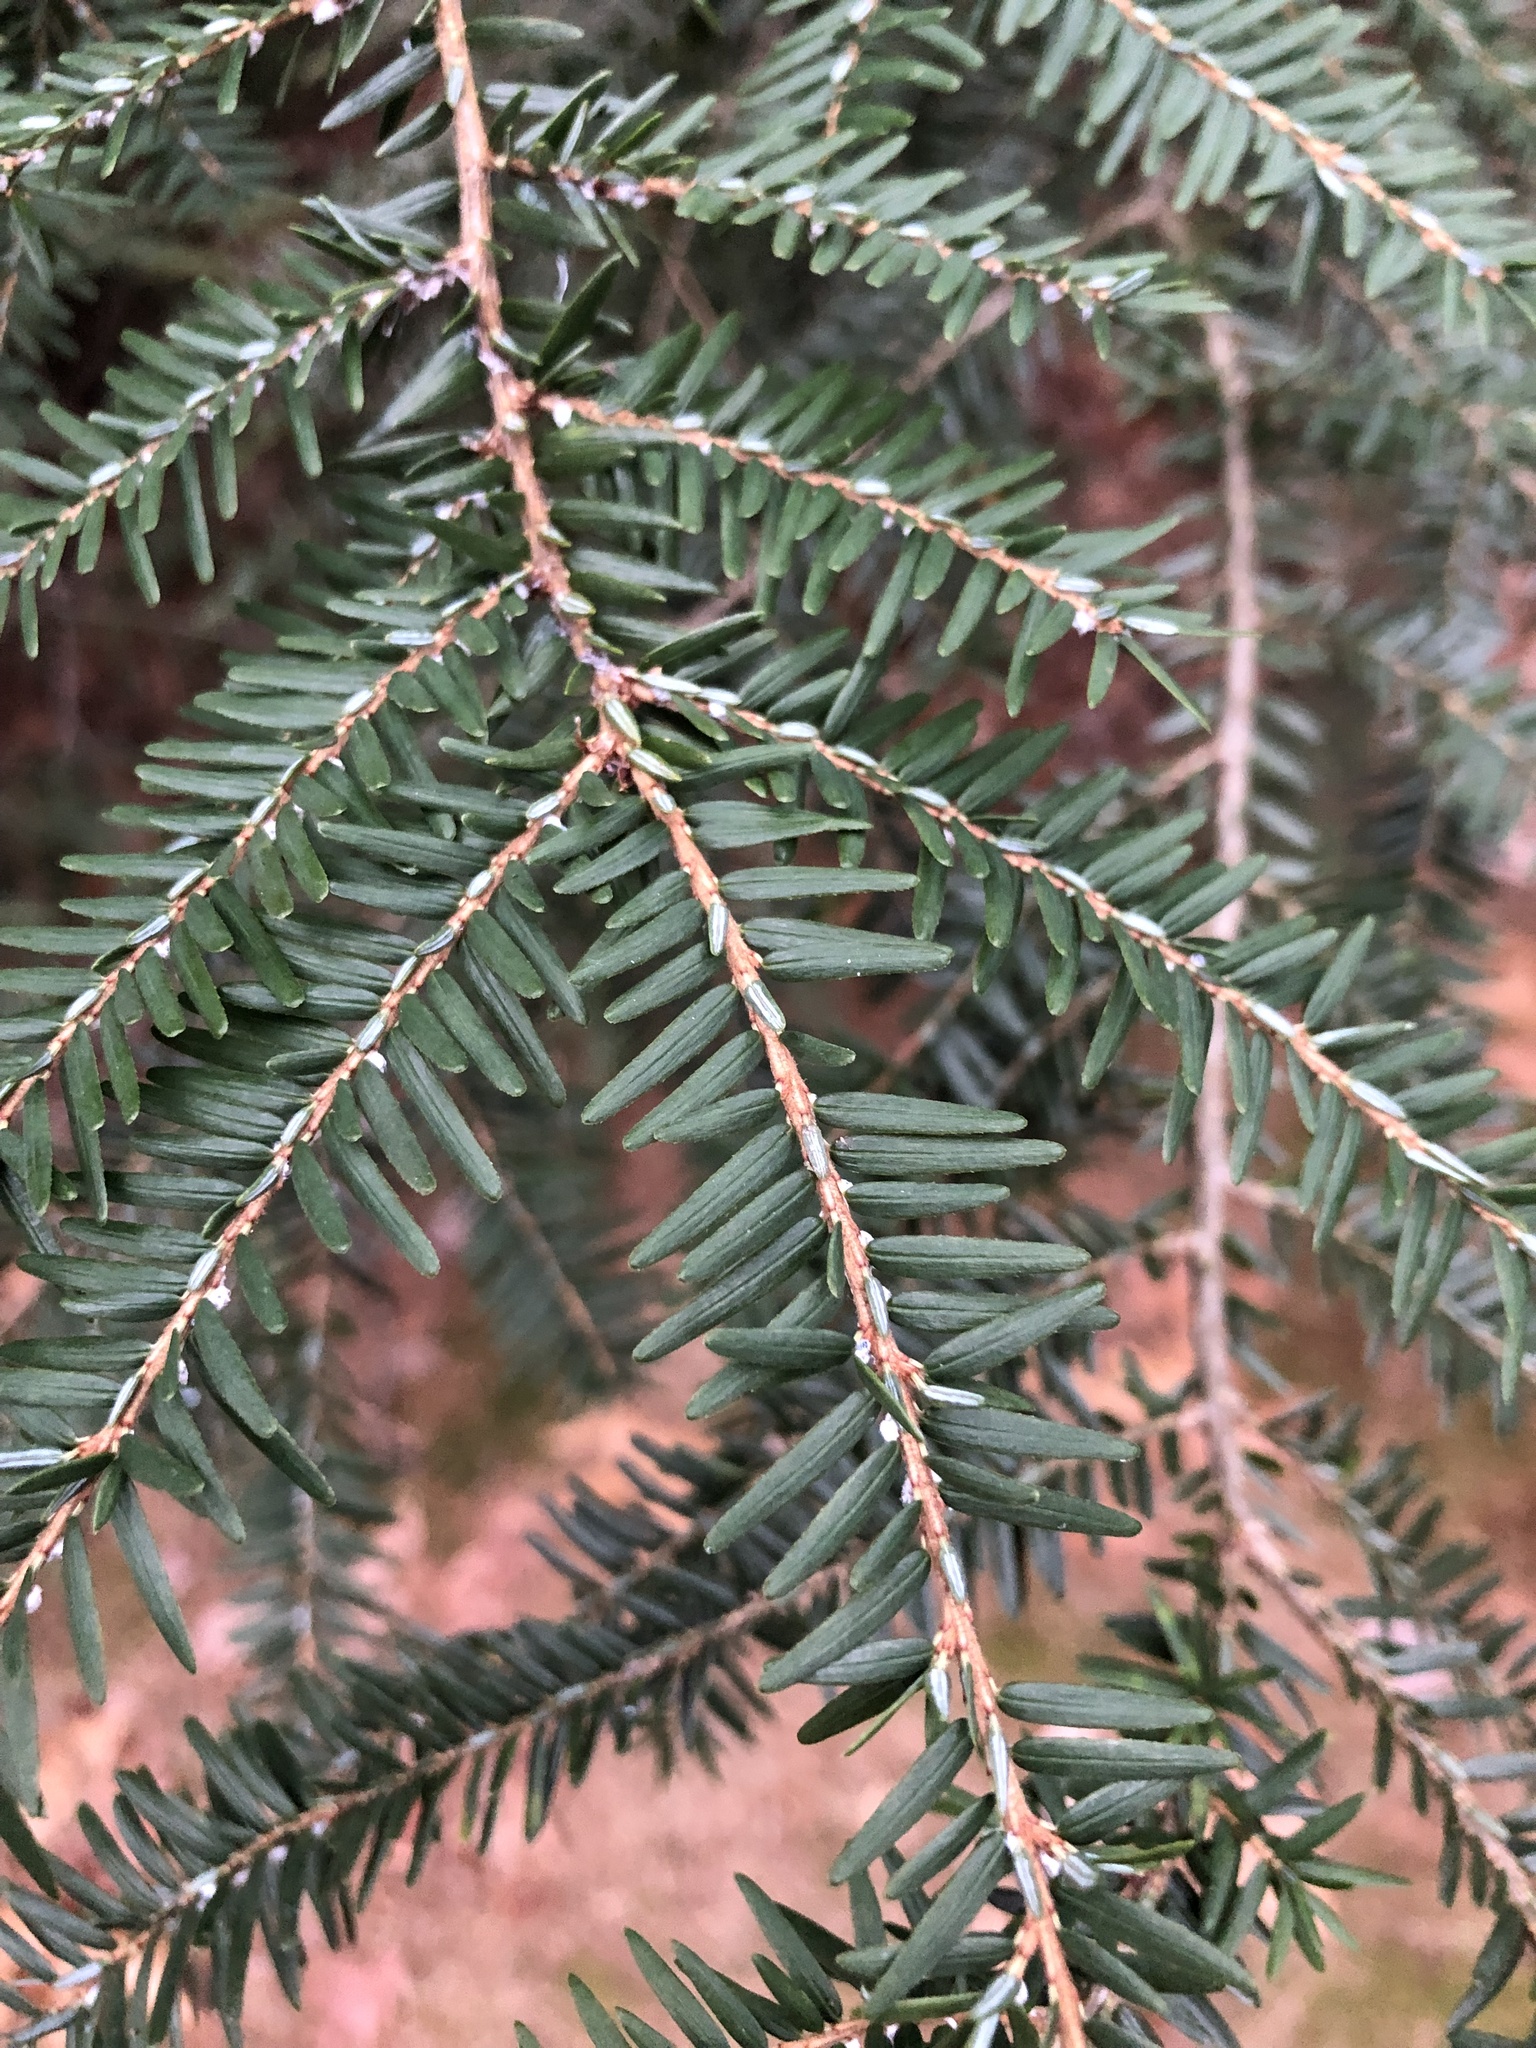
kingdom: Plantae
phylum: Tracheophyta
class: Pinopsida
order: Pinales
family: Pinaceae
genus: Tsuga
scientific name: Tsuga canadensis
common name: Eastern hemlock
